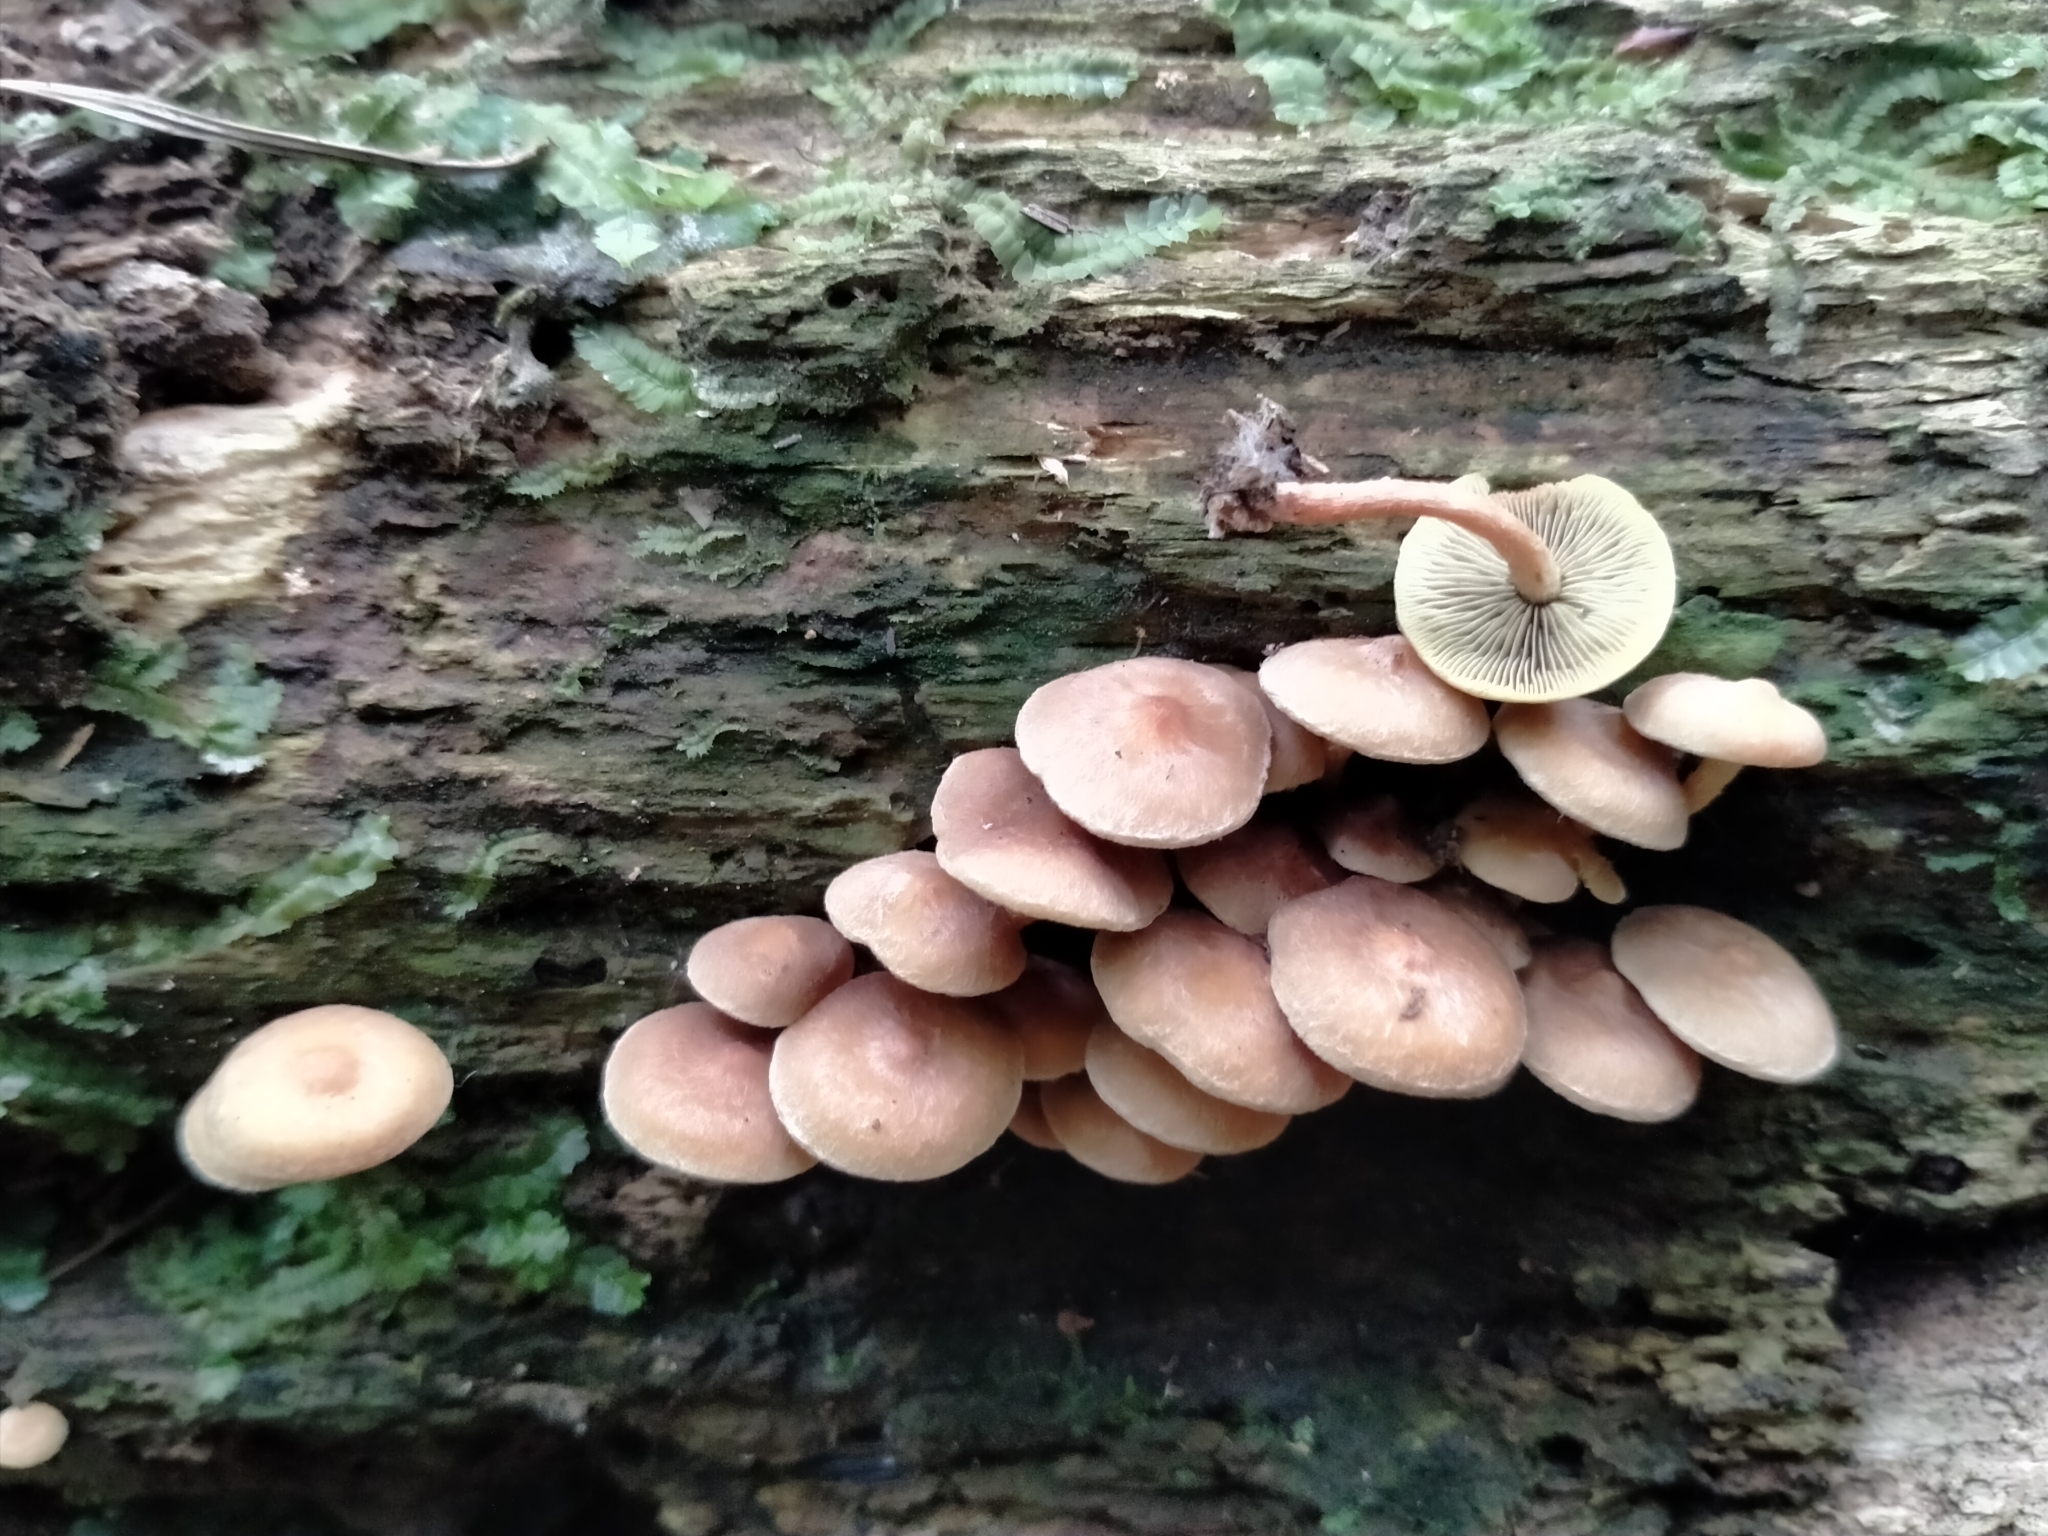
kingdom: Fungi
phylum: Basidiomycota
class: Agaricomycetes
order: Agaricales
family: Strophariaceae
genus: Hypholoma
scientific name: Hypholoma acutum
